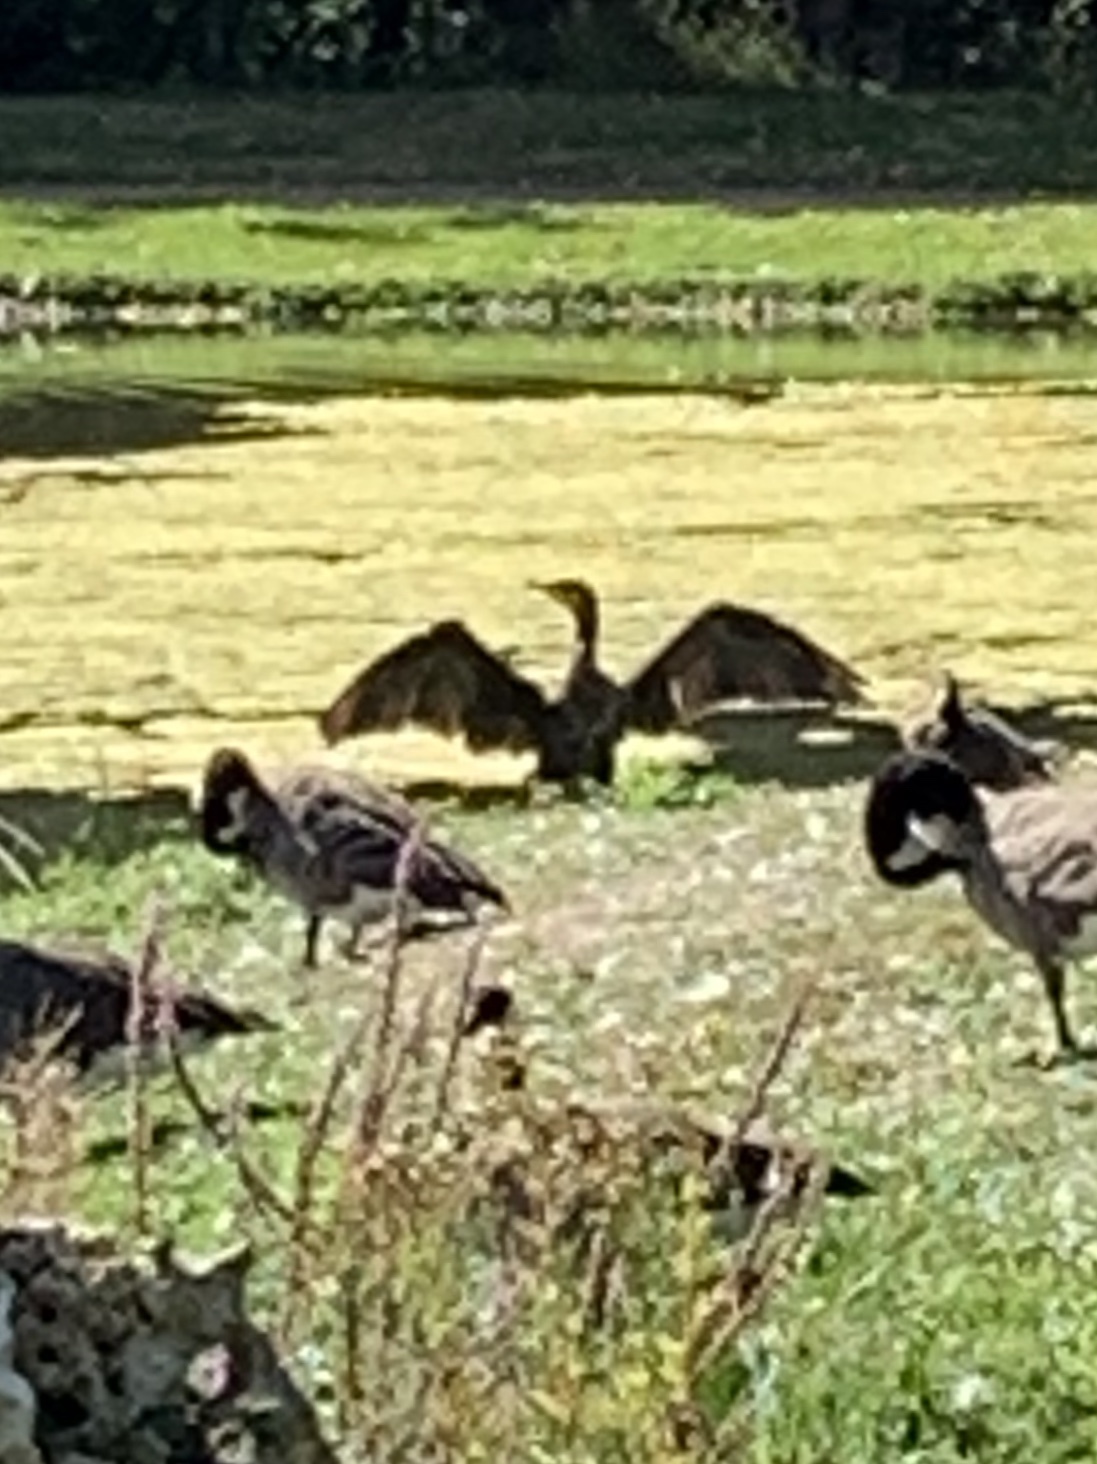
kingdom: Animalia
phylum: Chordata
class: Aves
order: Suliformes
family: Phalacrocoracidae
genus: Phalacrocorax
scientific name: Phalacrocorax carbo
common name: Great cormorant
